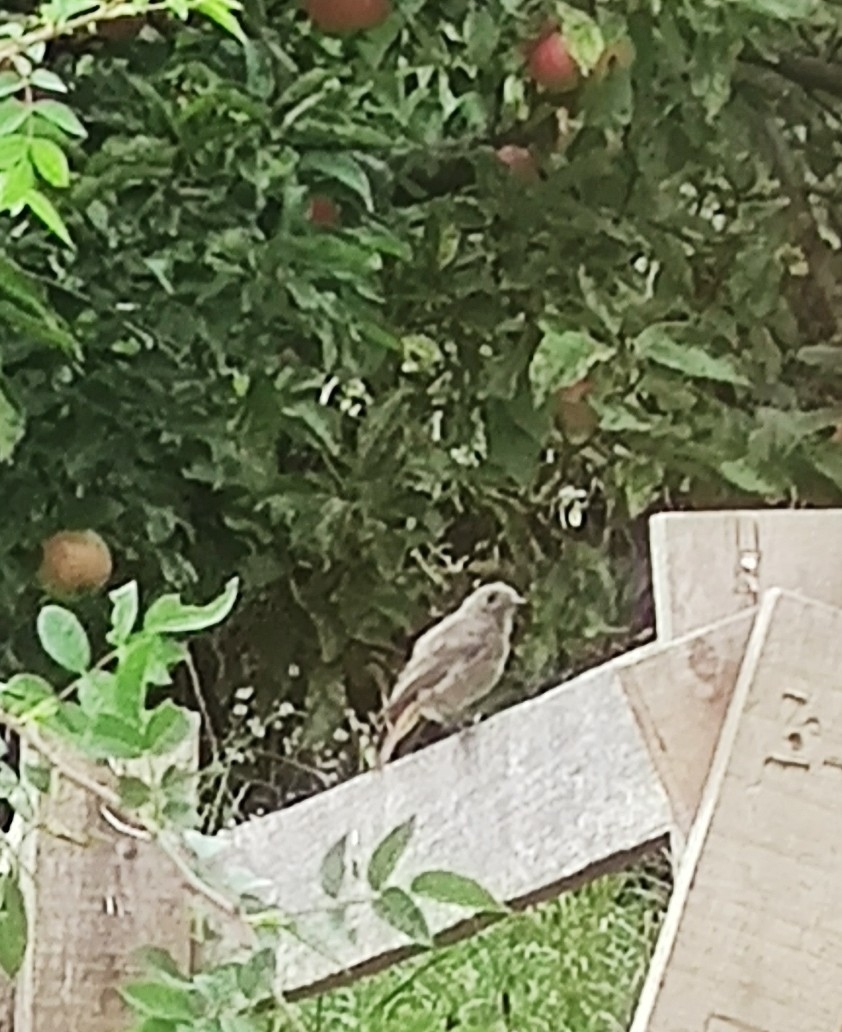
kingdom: Animalia
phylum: Chordata
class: Aves
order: Passeriformes
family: Muscicapidae
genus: Phoenicurus
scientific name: Phoenicurus ochruros
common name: Black redstart
